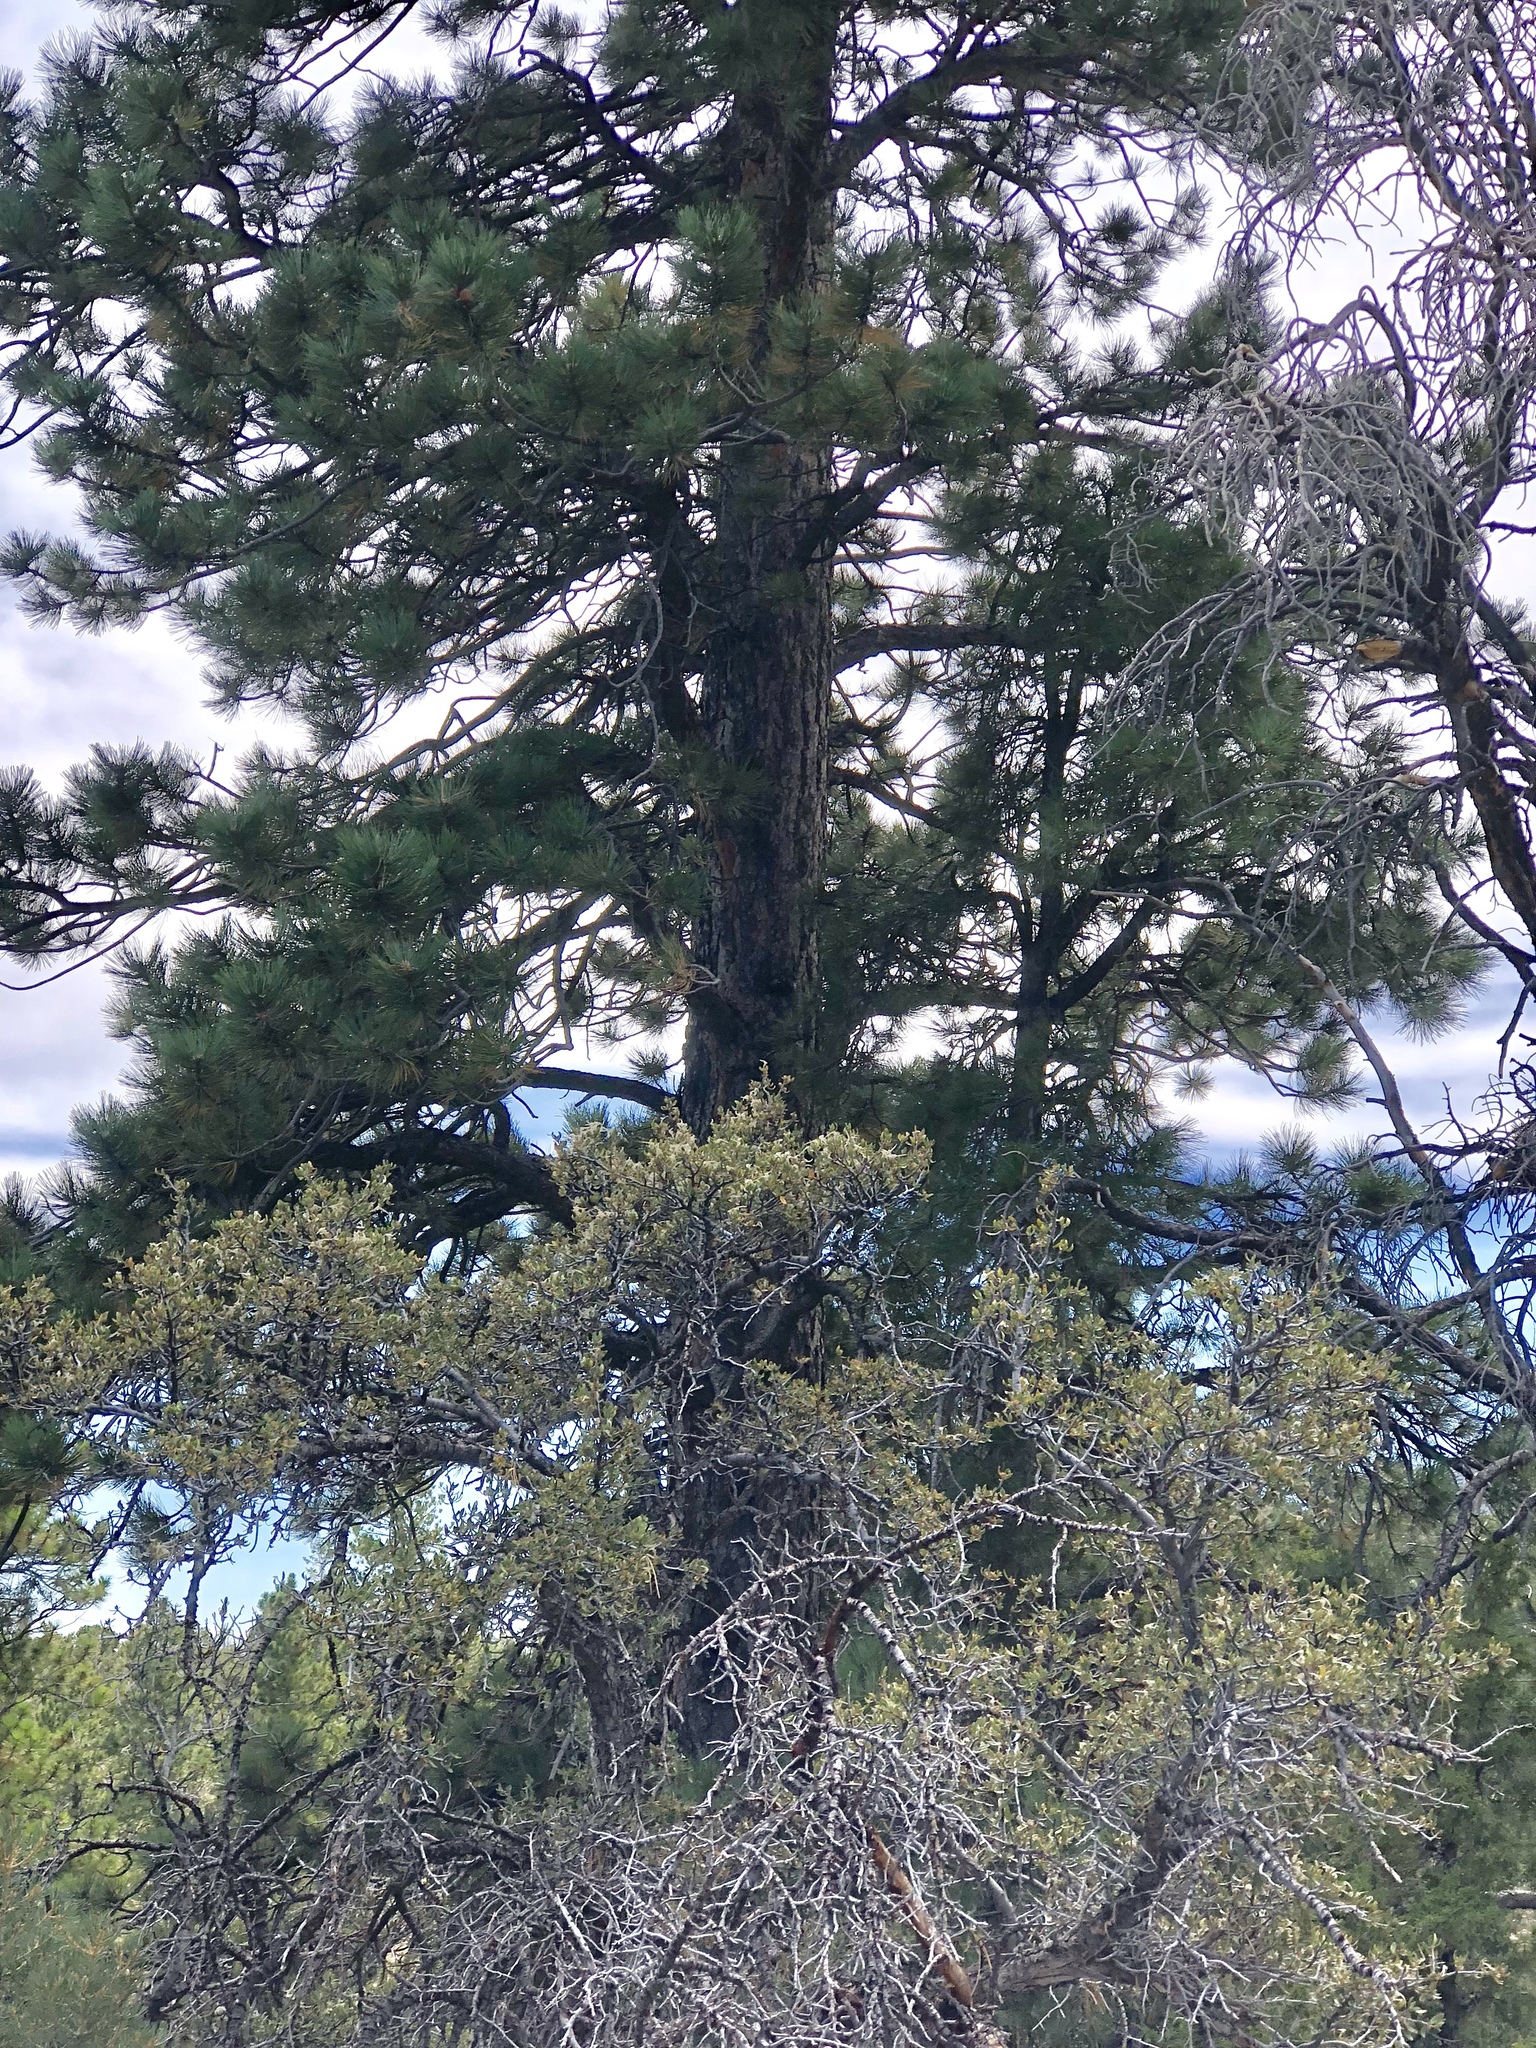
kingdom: Plantae
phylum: Tracheophyta
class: Pinopsida
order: Pinales
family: Pinaceae
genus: Pinus
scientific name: Pinus ponderosa
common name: Western yellow-pine
